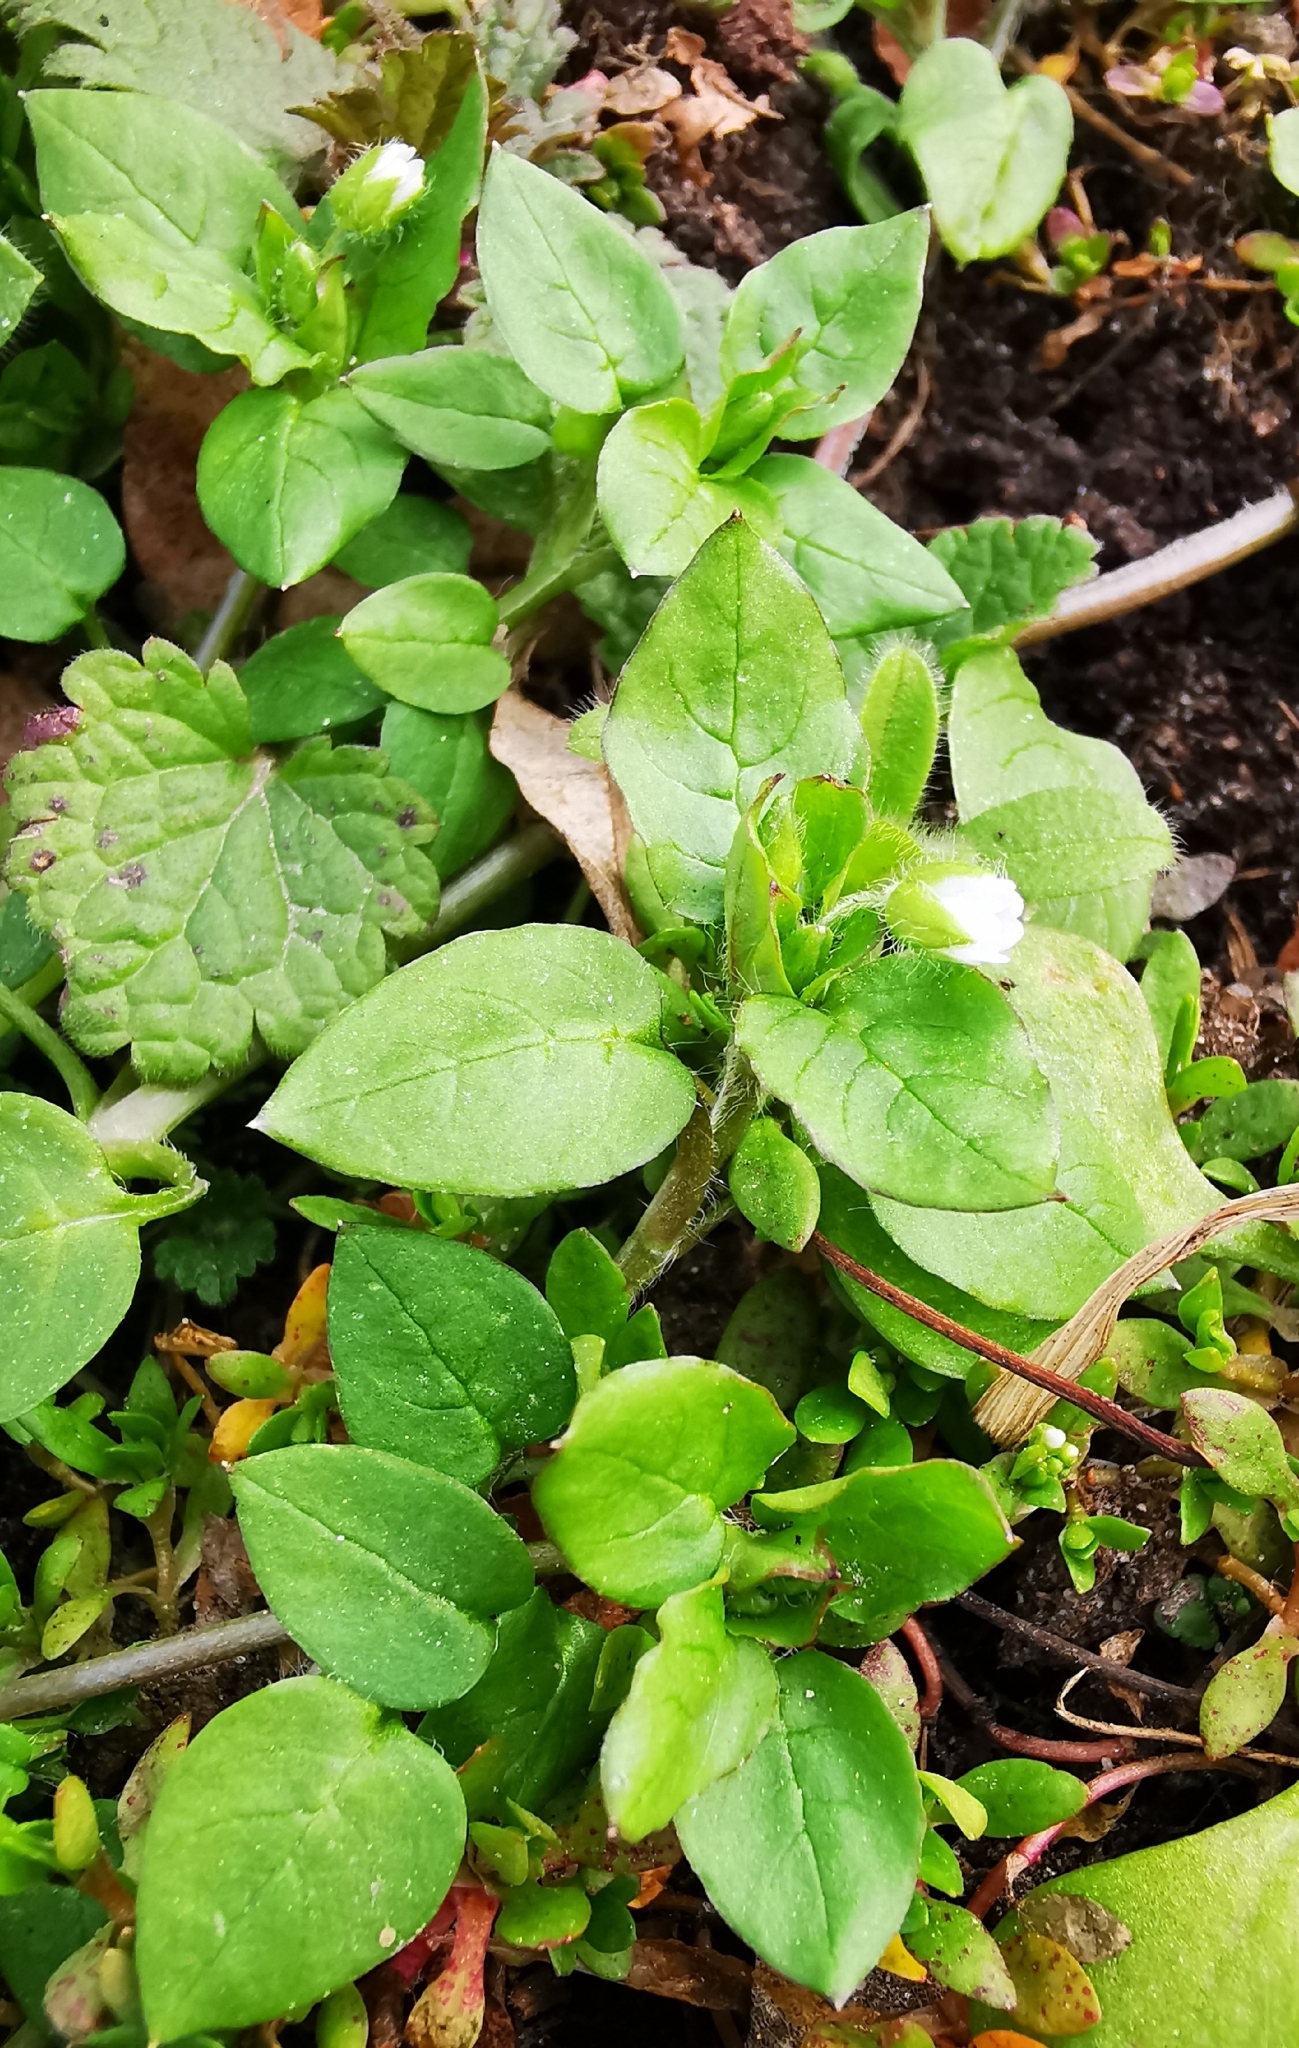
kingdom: Plantae
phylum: Tracheophyta
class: Magnoliopsida
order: Caryophyllales
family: Caryophyllaceae
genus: Stellaria
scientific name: Stellaria media
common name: Common chickweed
